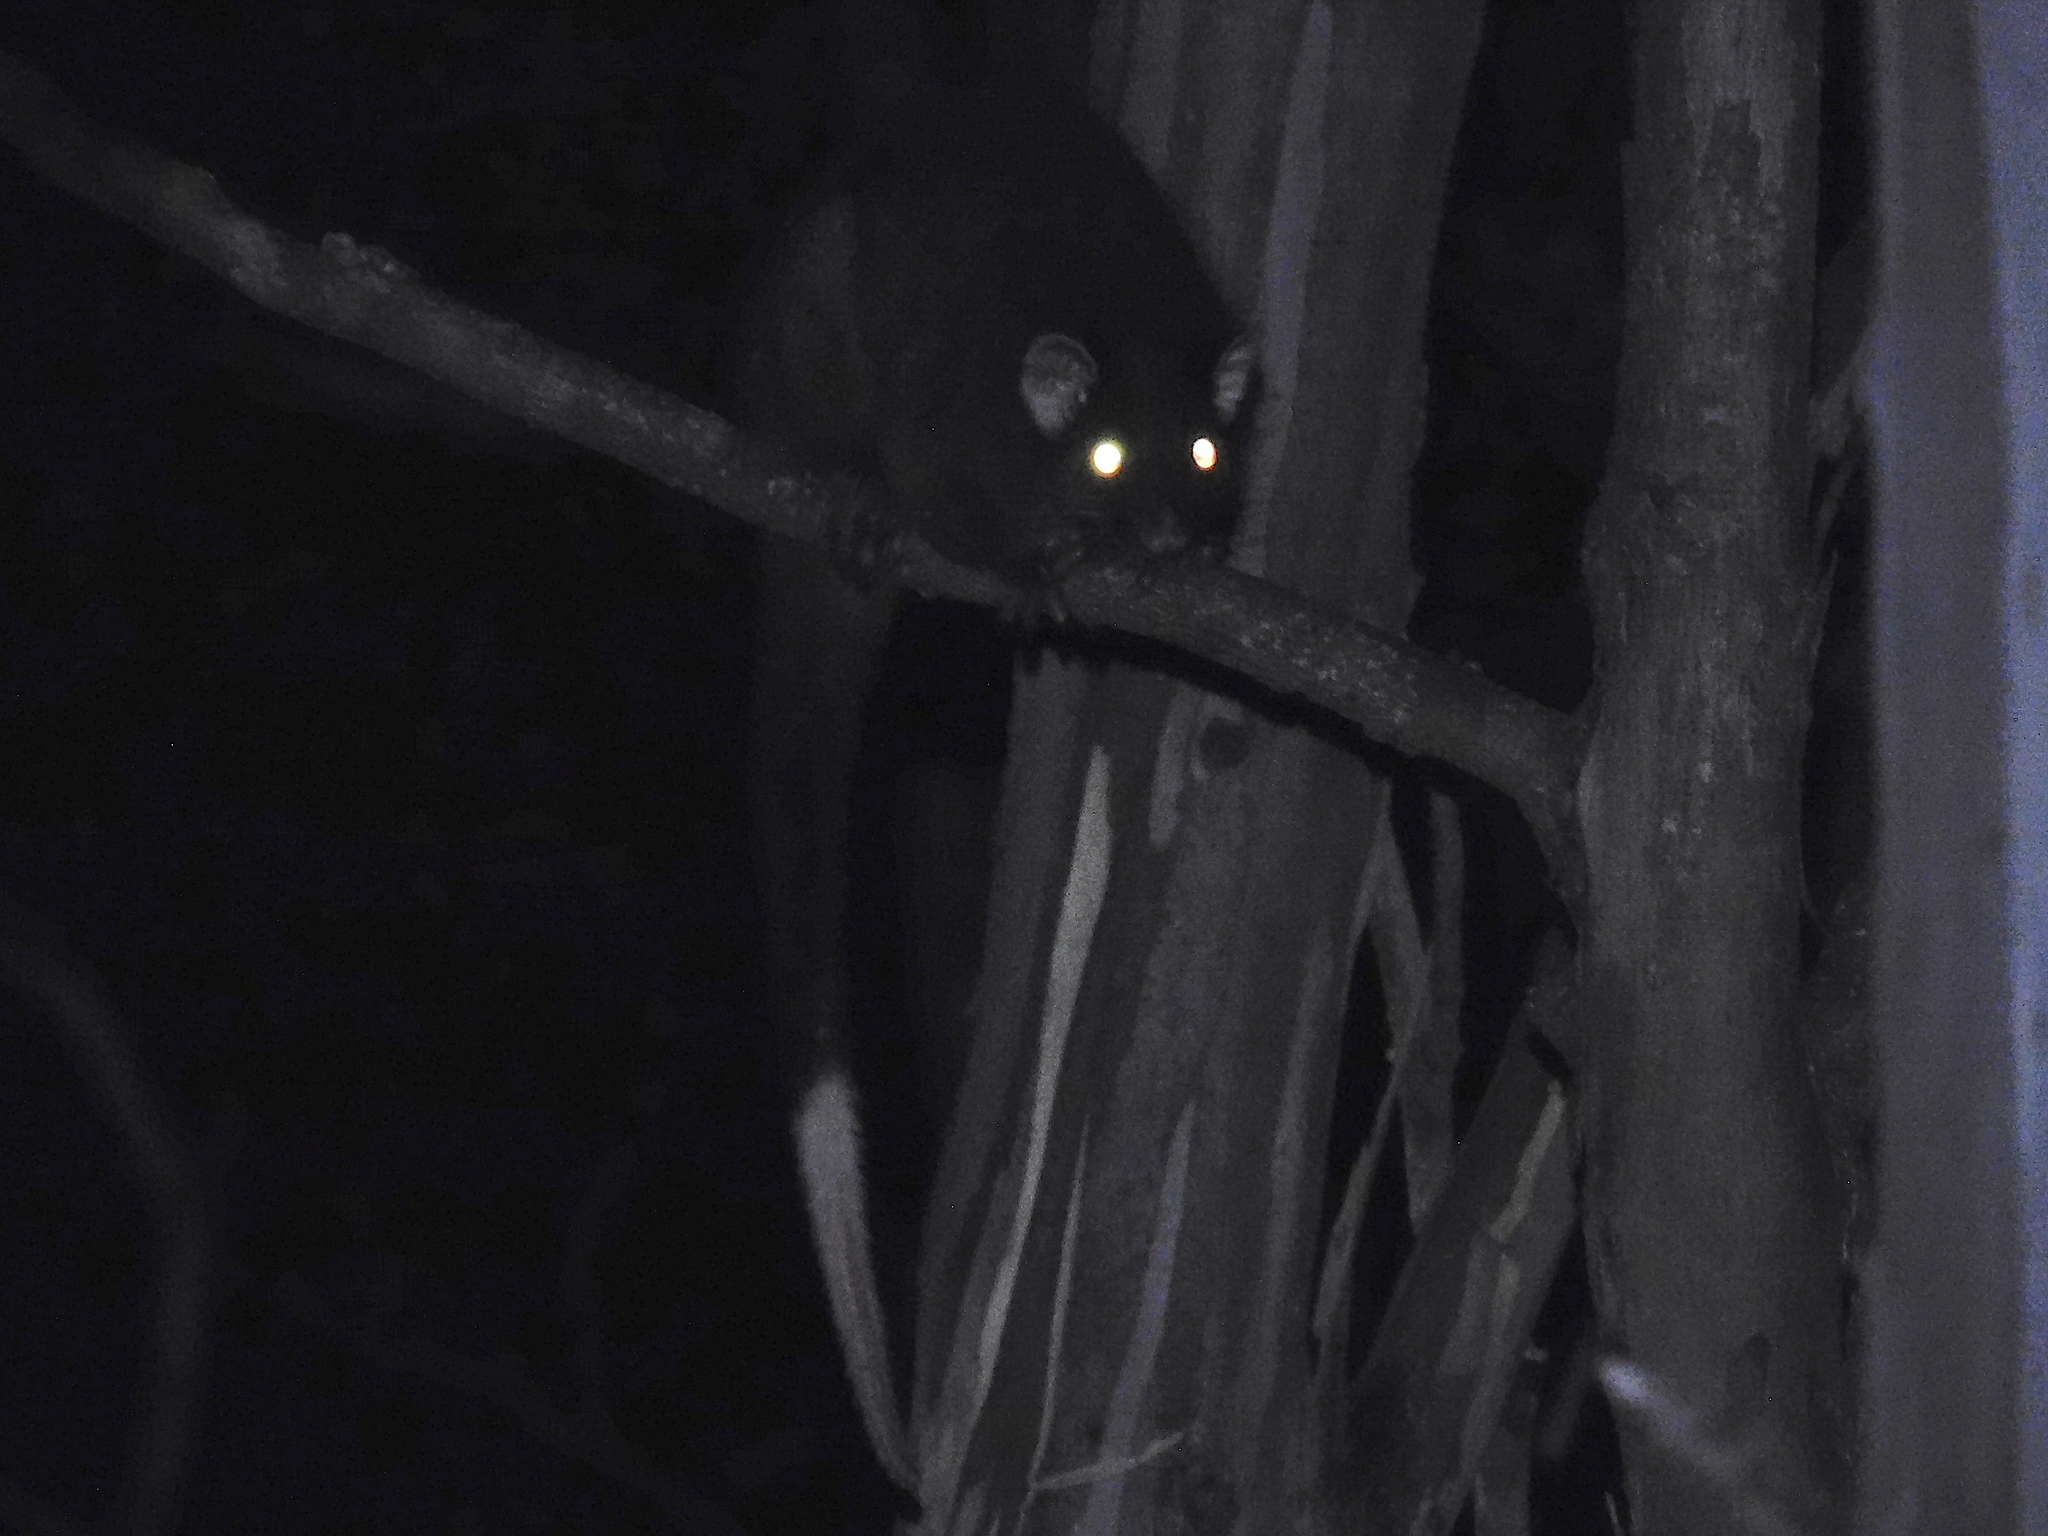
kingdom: Animalia
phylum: Chordata
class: Mammalia
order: Diprotodontia
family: Pseudocheiridae
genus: Pseudocheirus
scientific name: Pseudocheirus peregrinus
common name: Common ringtail possum
